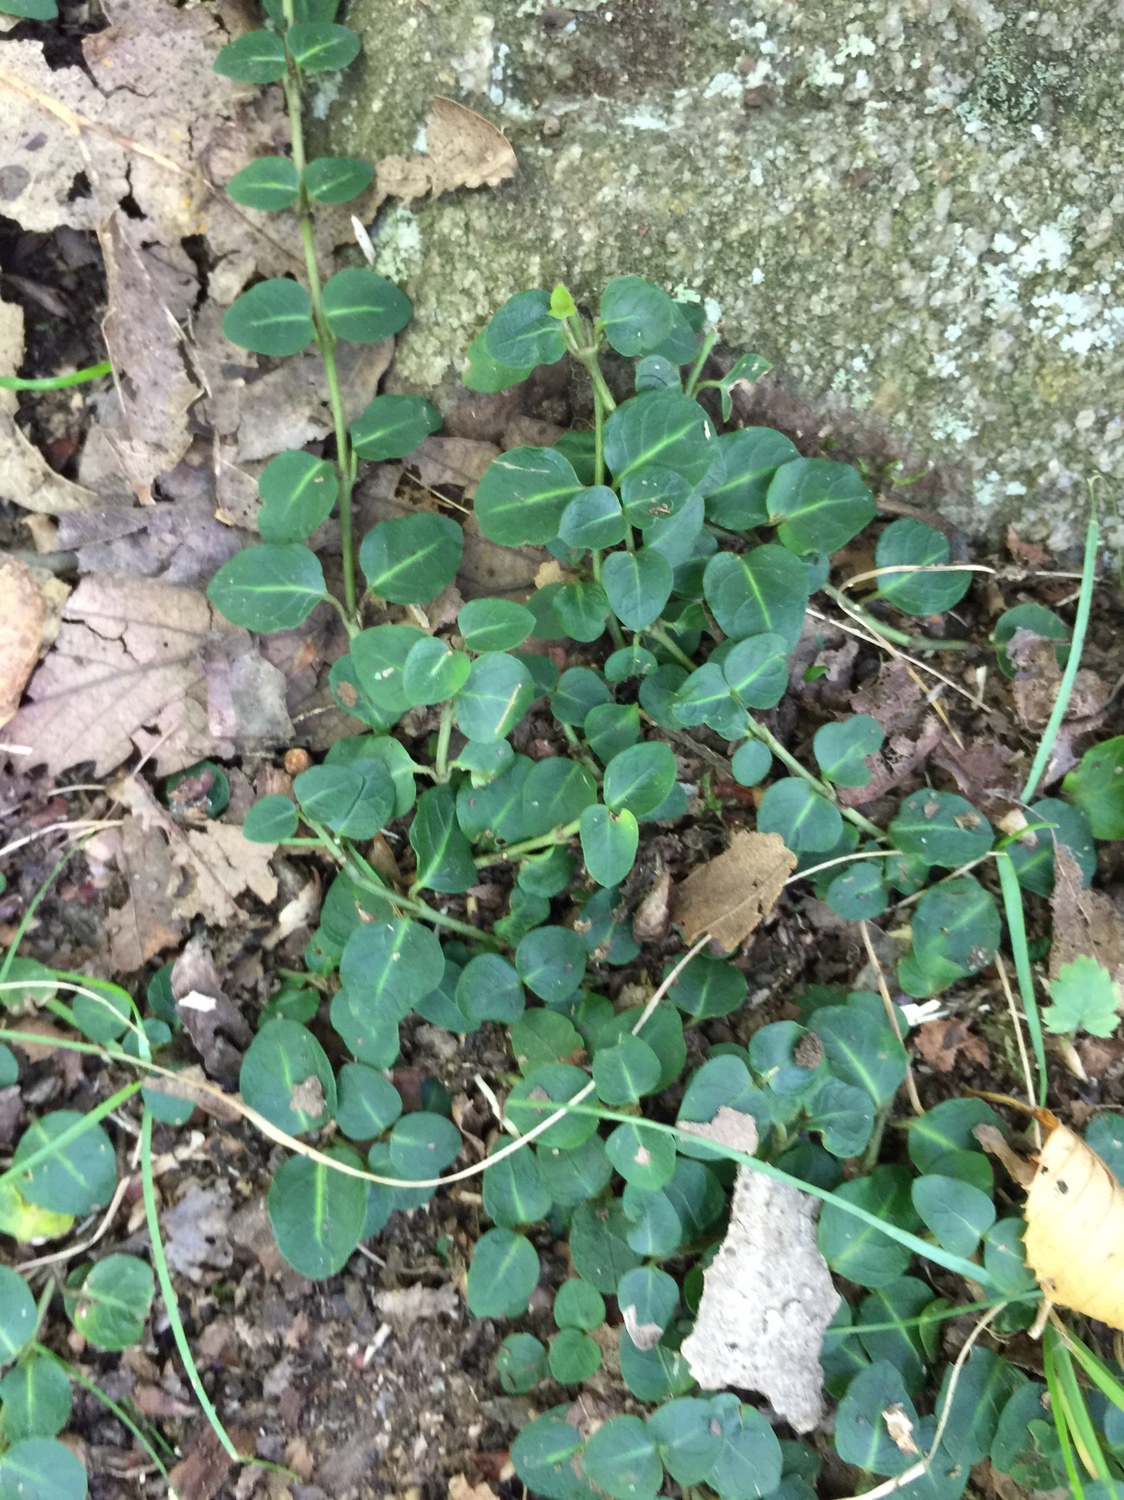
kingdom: Plantae
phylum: Tracheophyta
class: Magnoliopsida
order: Gentianales
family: Rubiaceae
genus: Mitchella
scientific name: Mitchella repens
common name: Partridge-berry
